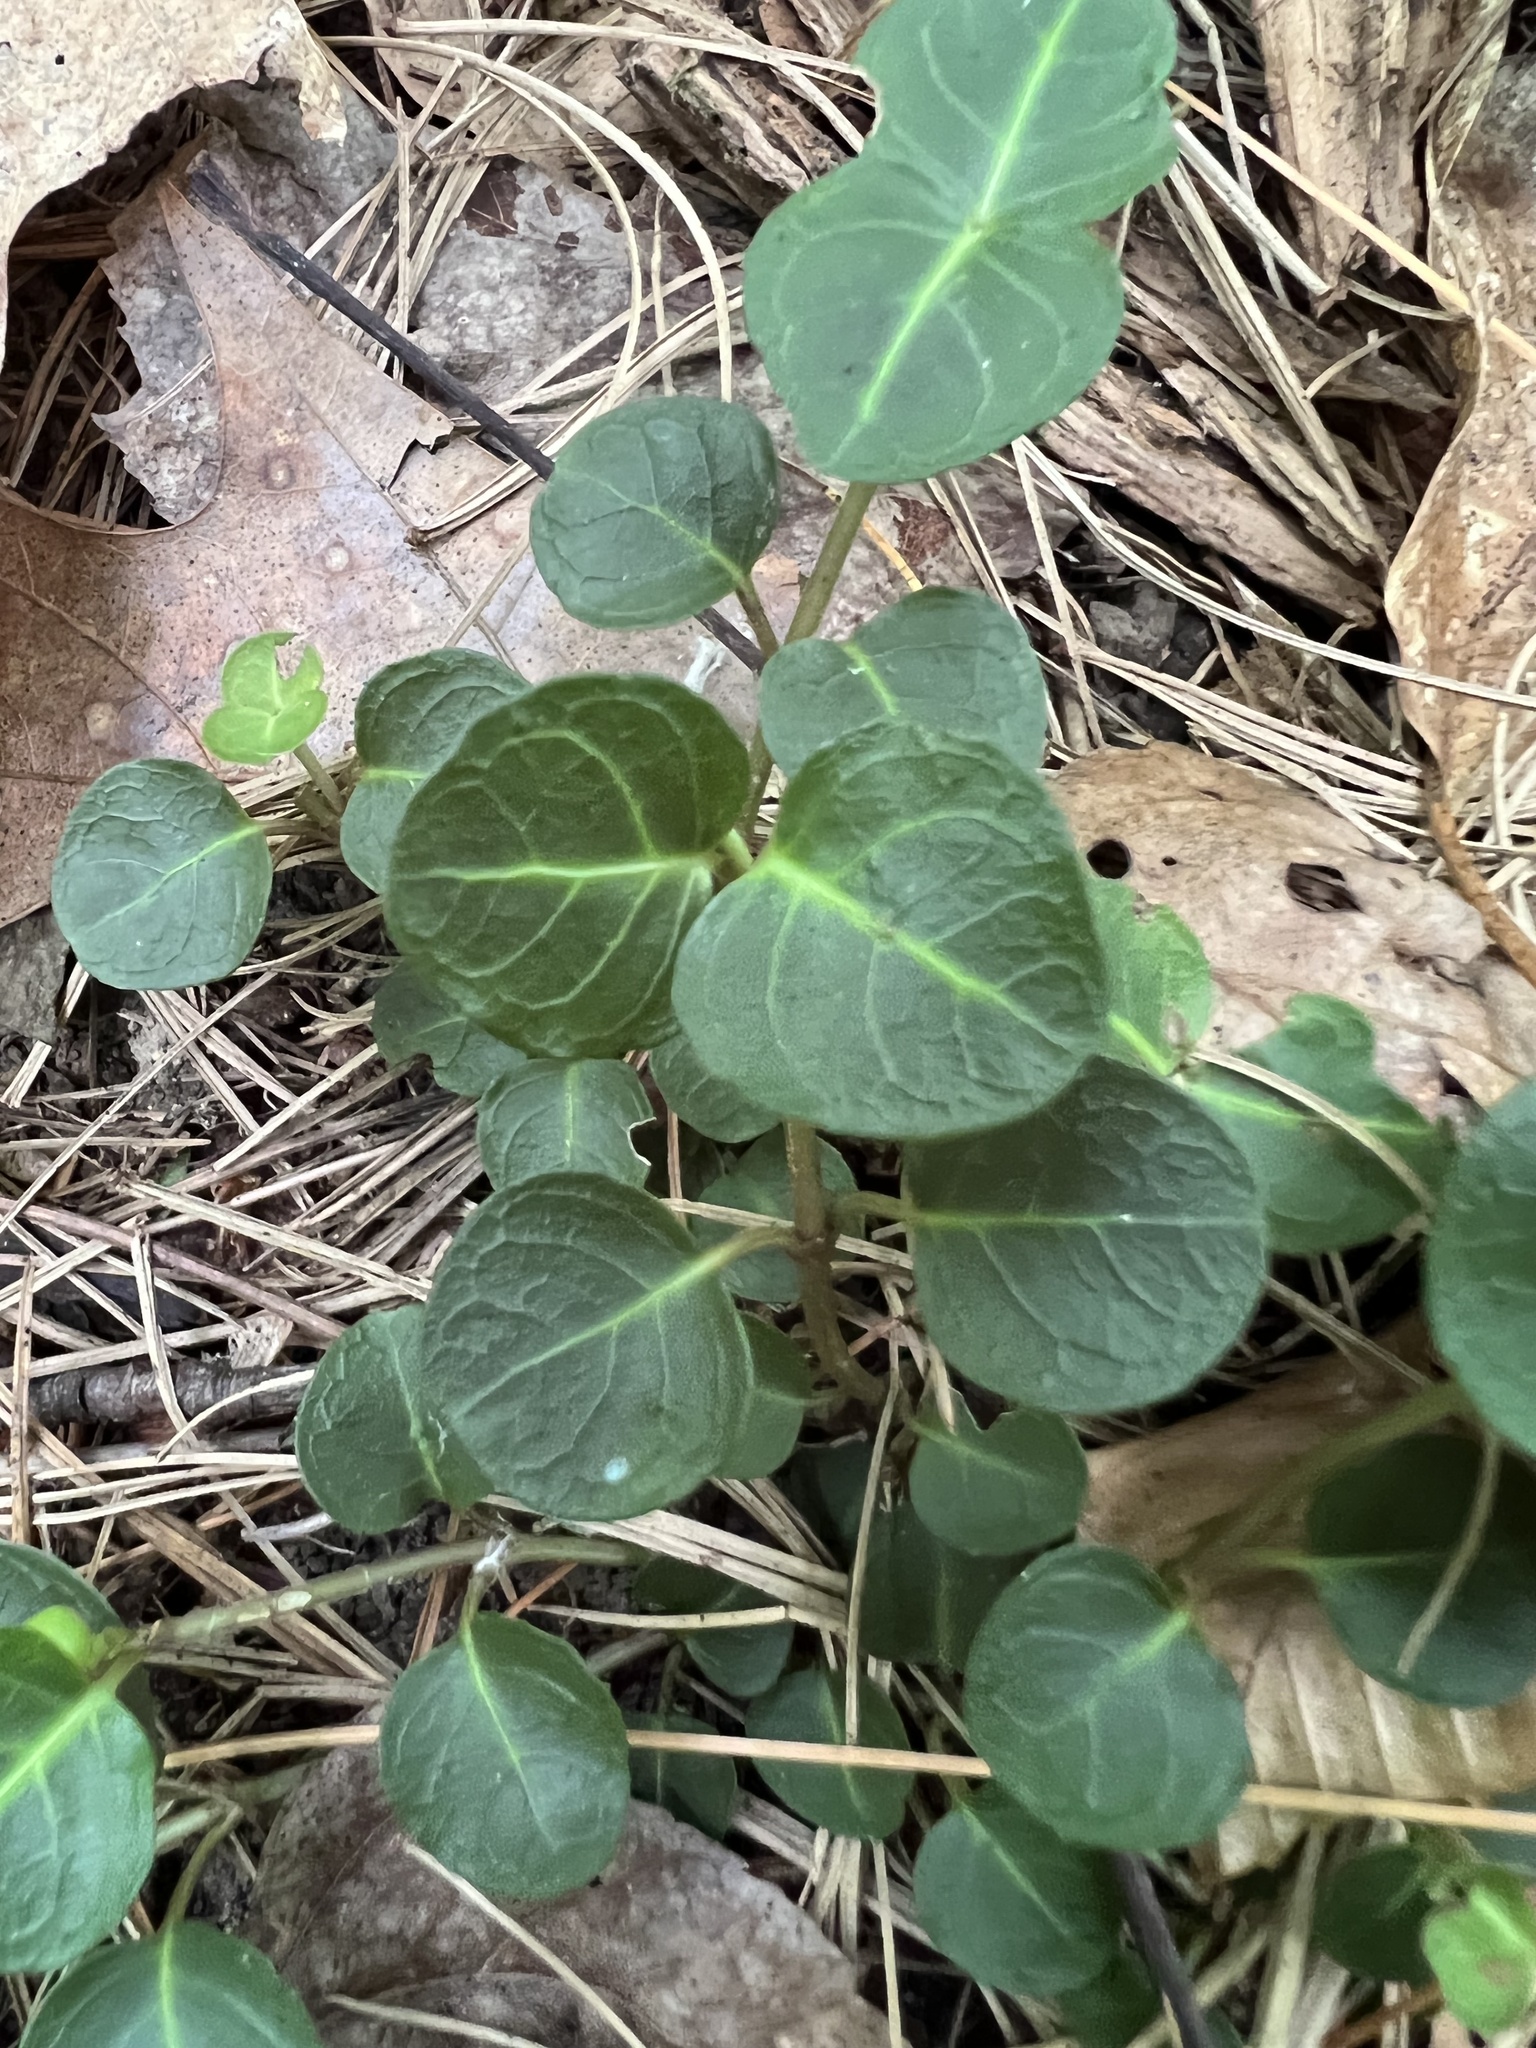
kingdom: Plantae
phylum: Tracheophyta
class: Magnoliopsida
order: Gentianales
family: Rubiaceae
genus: Mitchella
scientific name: Mitchella repens
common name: Partridge-berry
